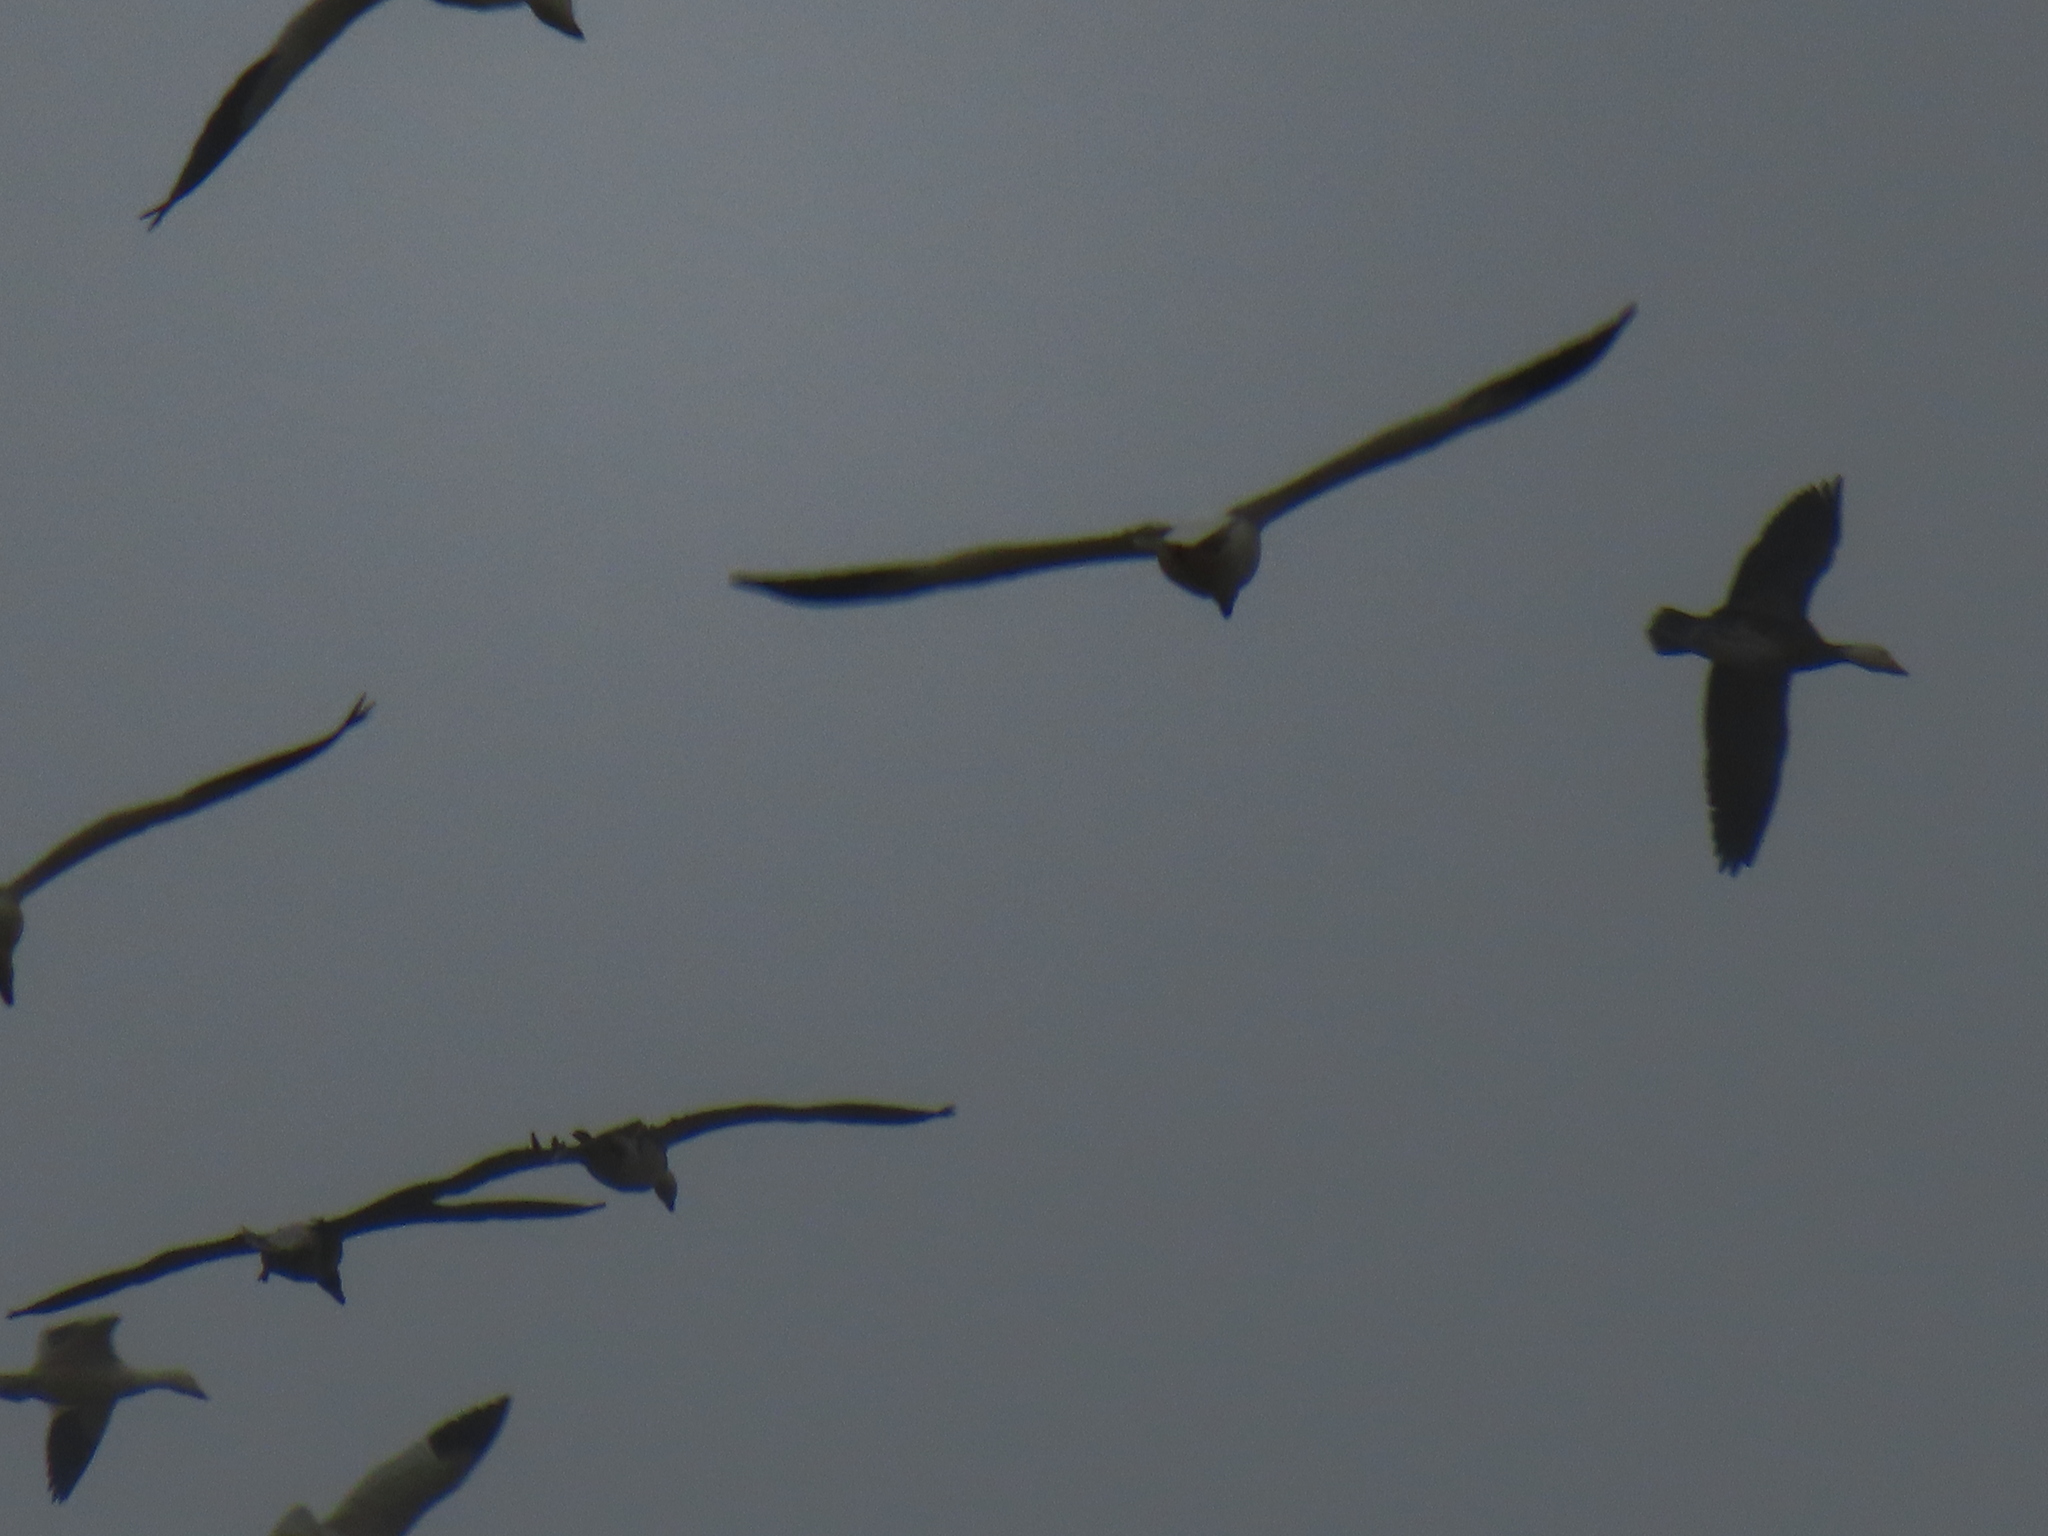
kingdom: Animalia
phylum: Chordata
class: Aves
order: Anseriformes
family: Anatidae
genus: Anser
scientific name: Anser caerulescens
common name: Snow goose
